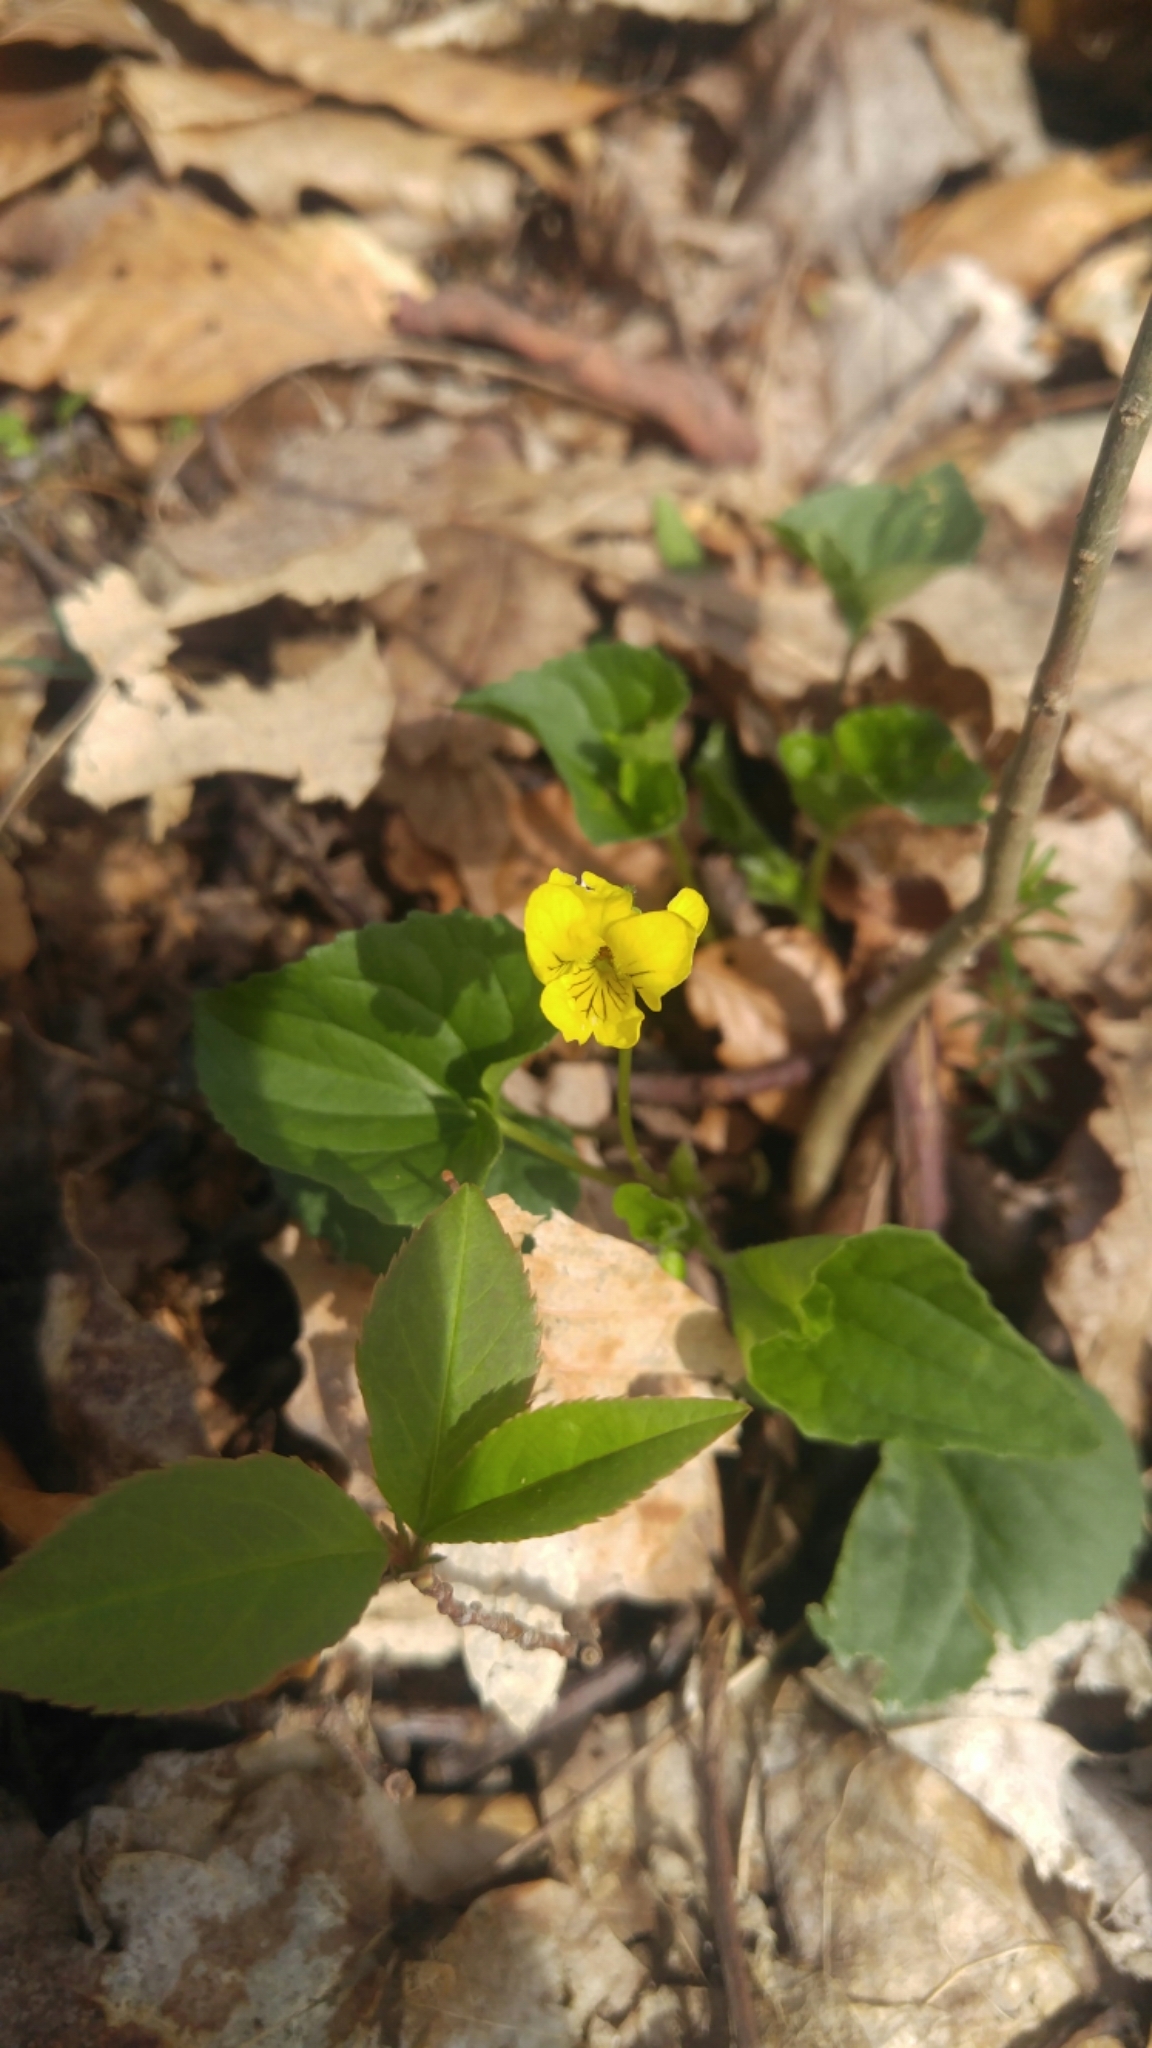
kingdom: Plantae
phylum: Tracheophyta
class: Magnoliopsida
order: Malpighiales
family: Violaceae
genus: Viola
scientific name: Viola eriocarpa
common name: Smooth yellow violet
